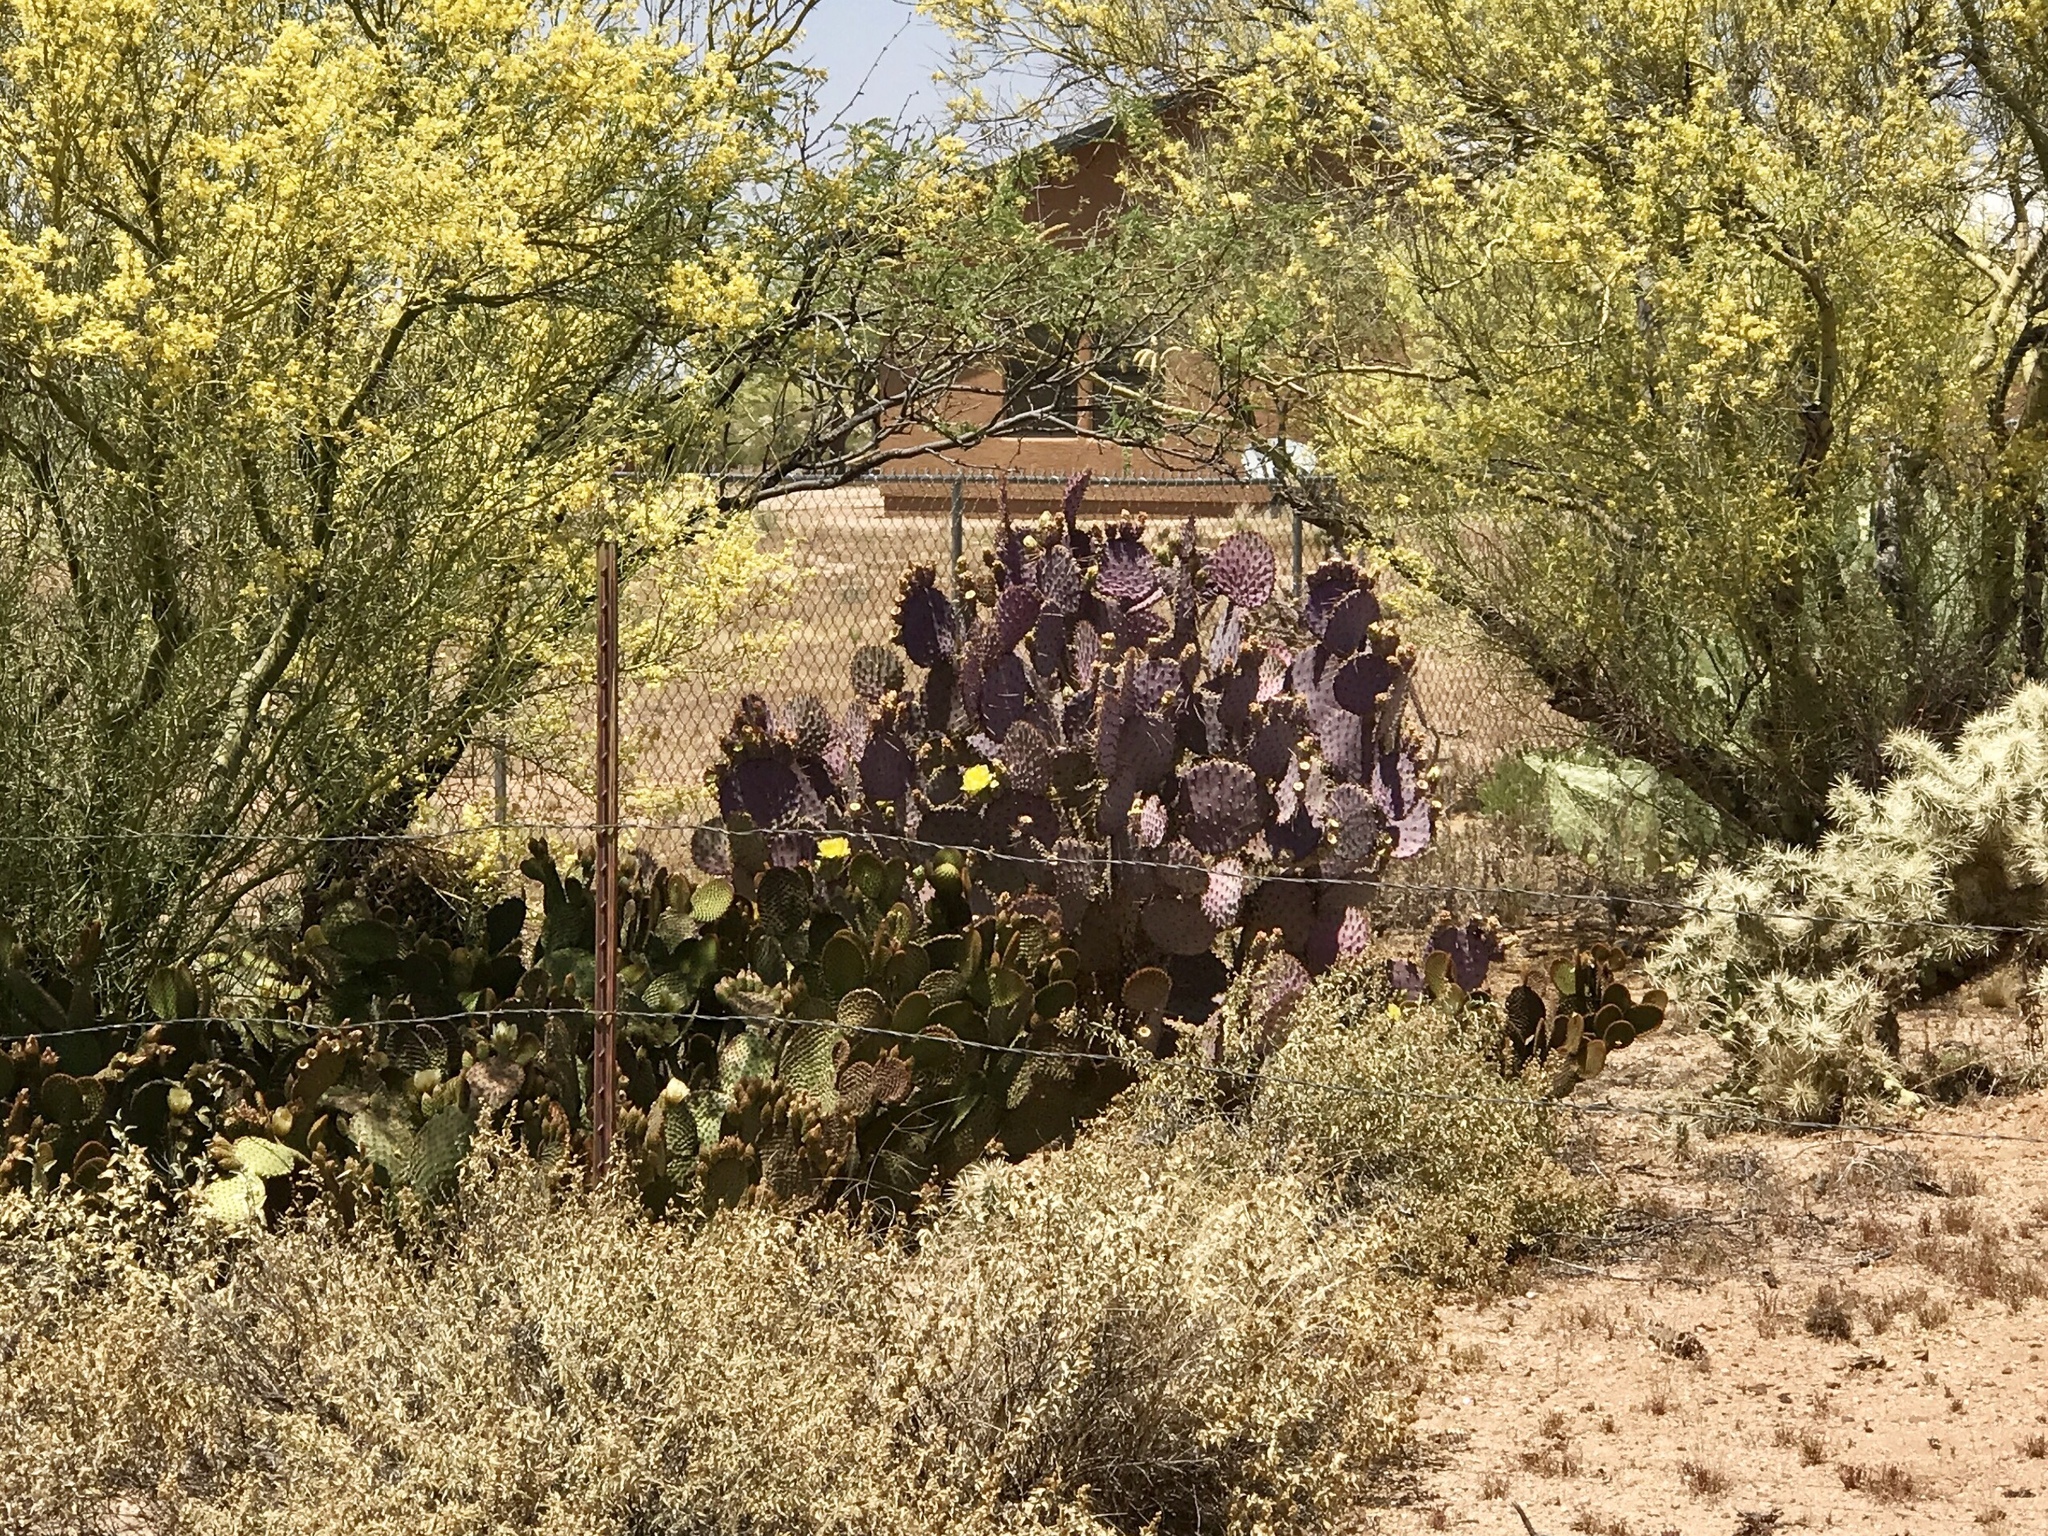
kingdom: Plantae
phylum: Tracheophyta
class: Magnoliopsida
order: Caryophyllales
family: Cactaceae
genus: Opuntia
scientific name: Opuntia gosseliniana
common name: Violet prickly-pear
